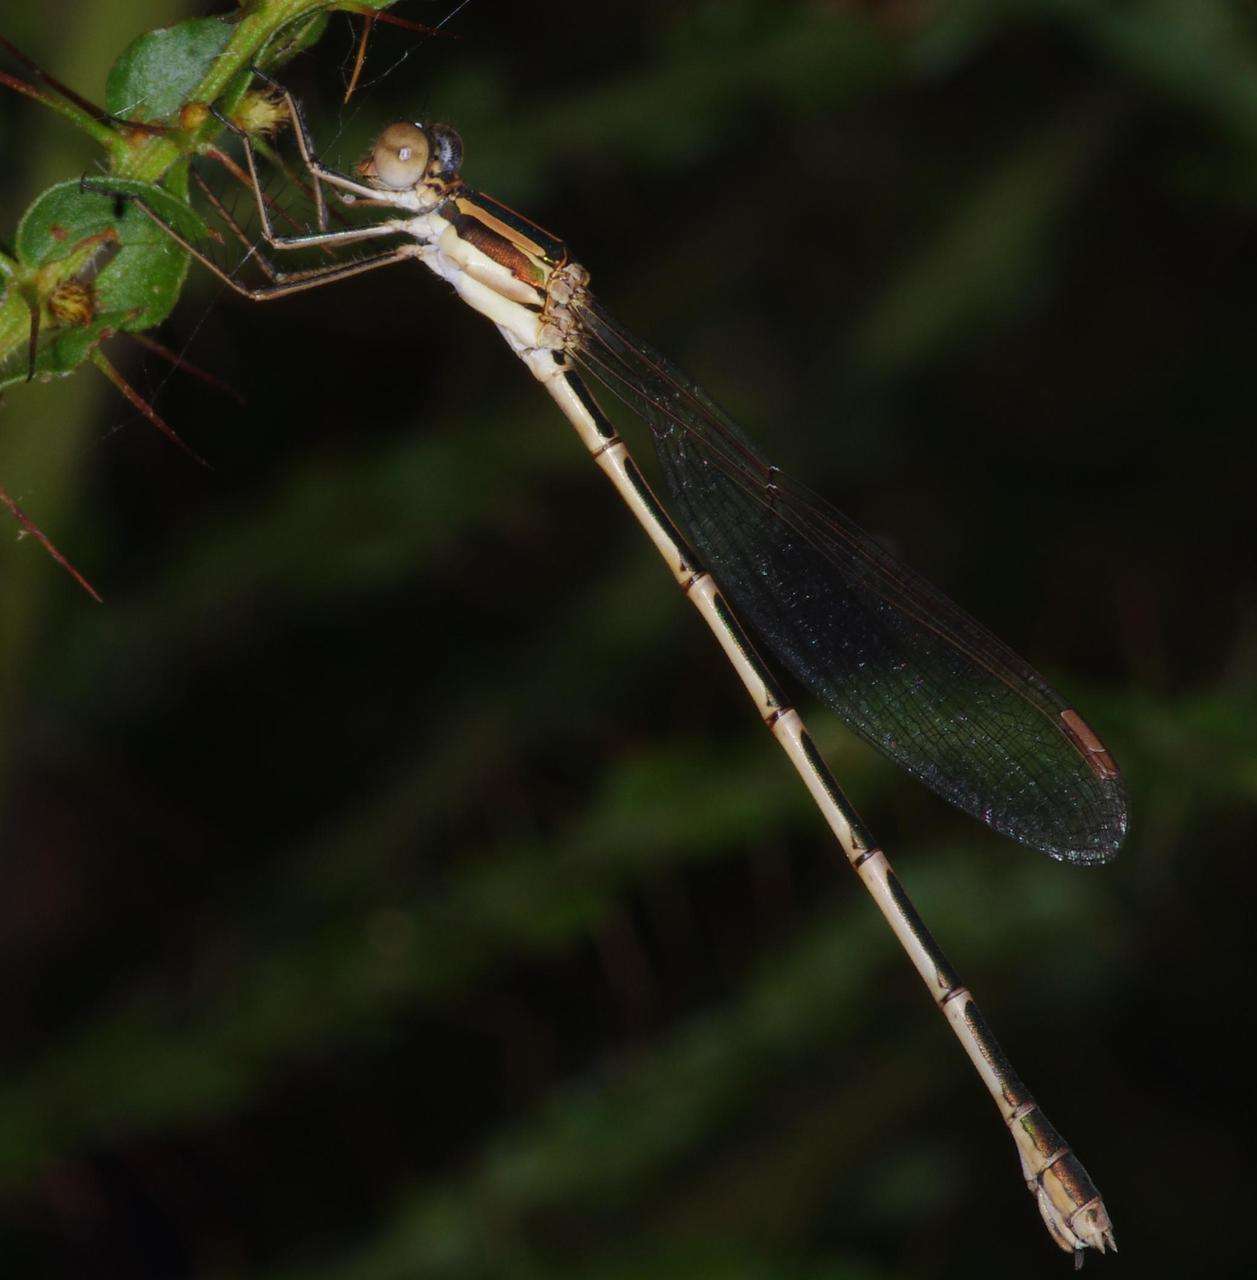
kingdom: Animalia
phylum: Arthropoda
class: Insecta
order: Odonata
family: Lestidae
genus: Austrolestes
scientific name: Austrolestes analis
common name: Slender ringtail
